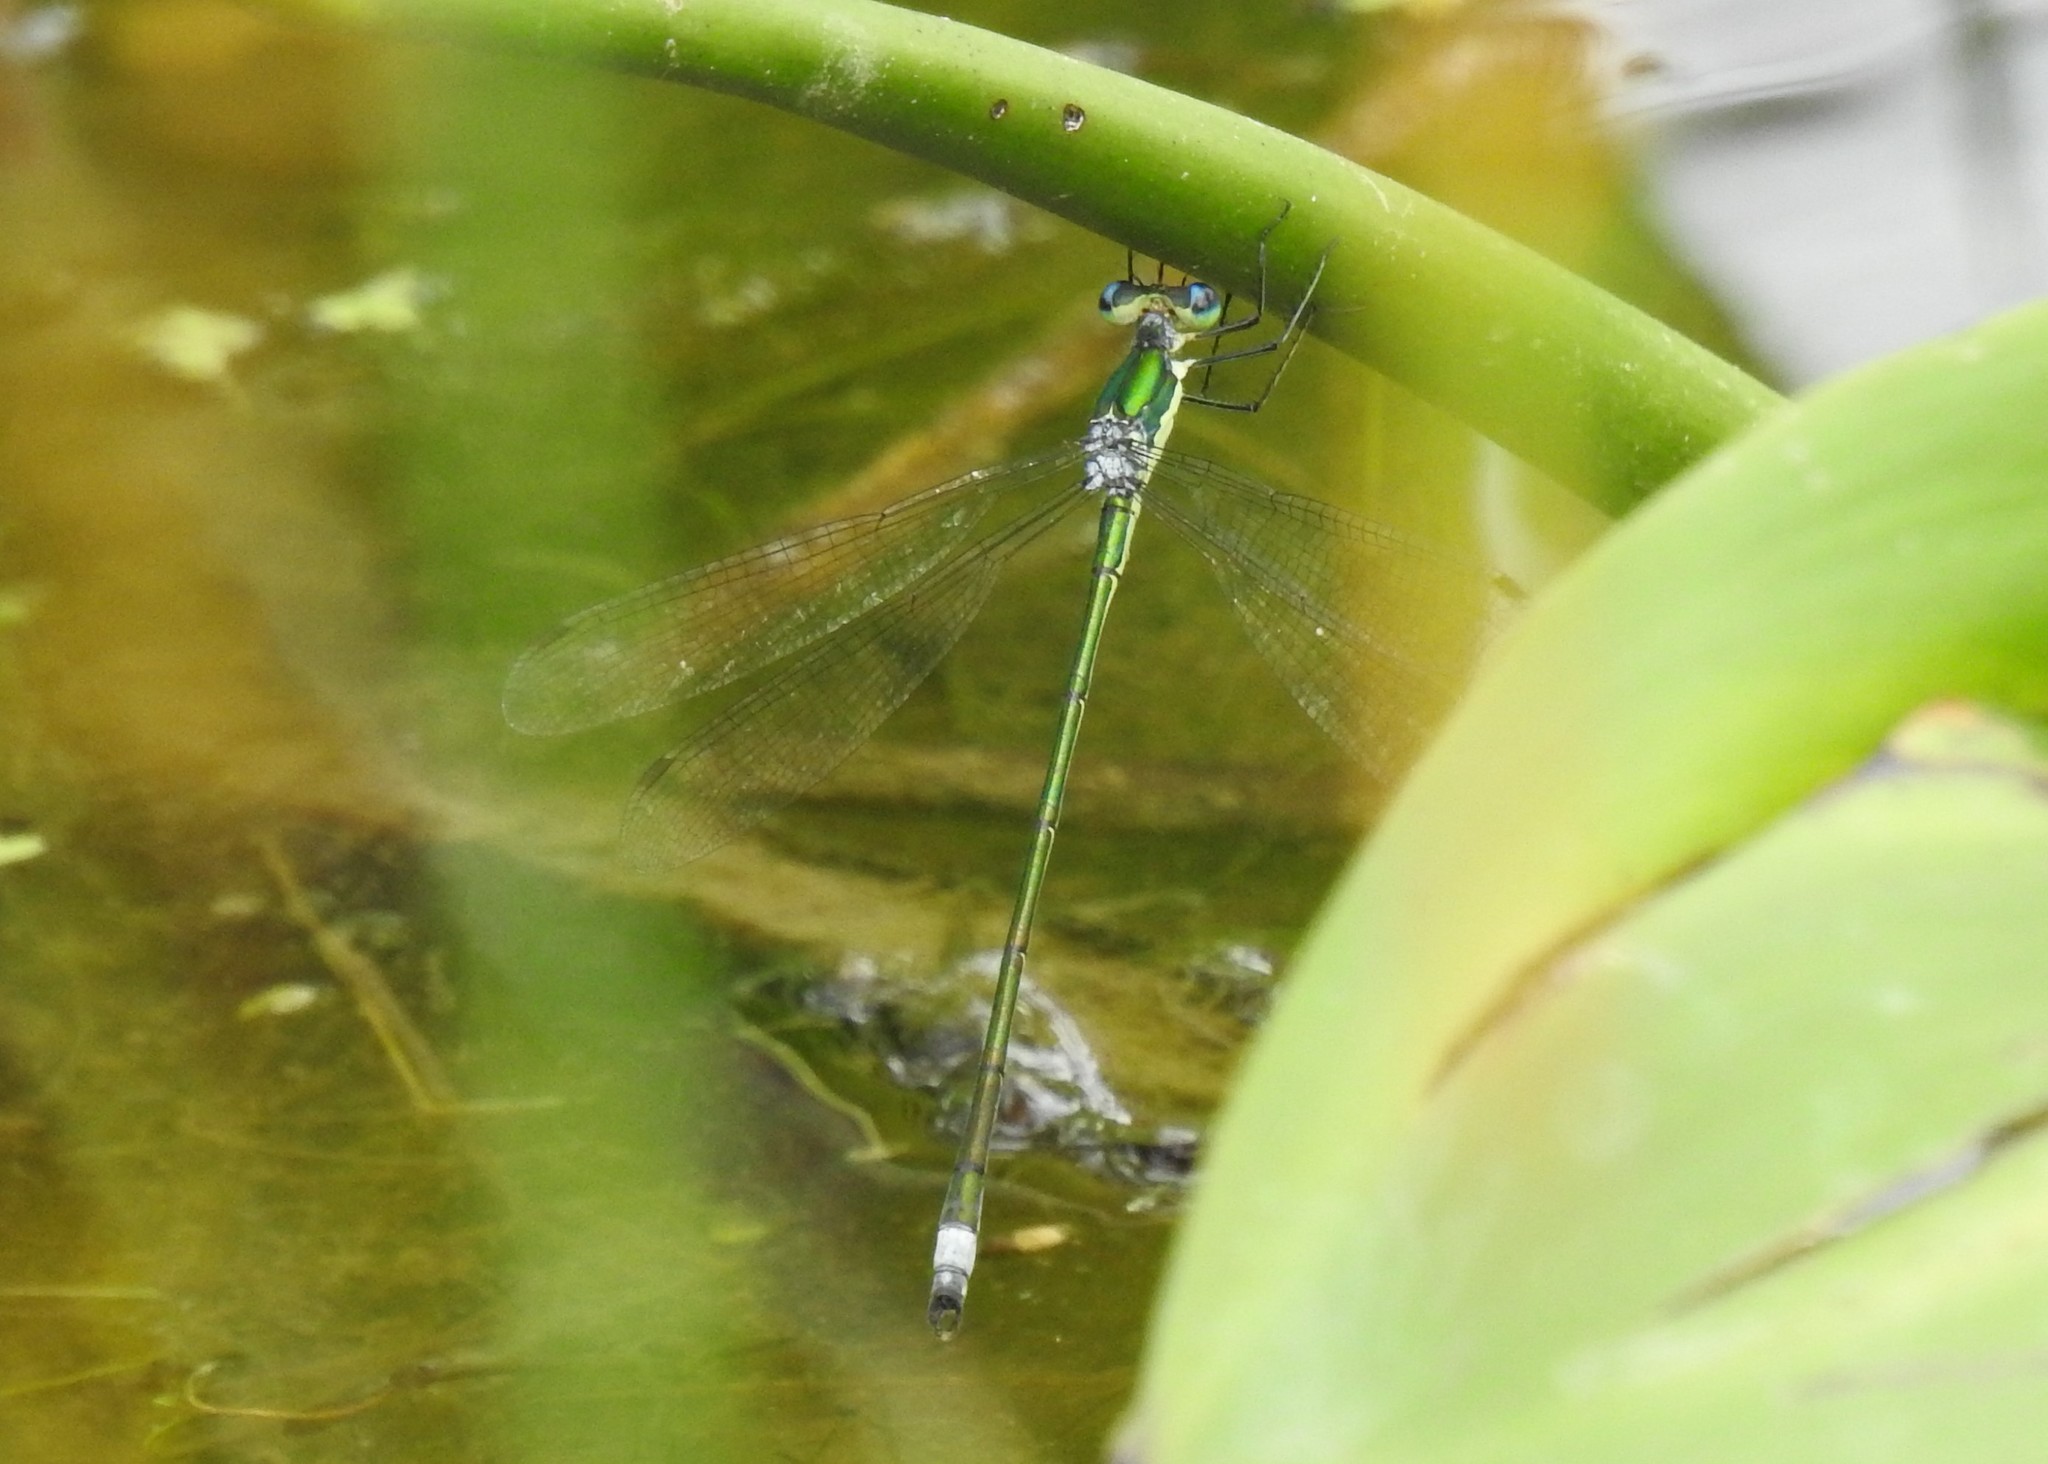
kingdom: Animalia
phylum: Arthropoda
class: Insecta
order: Odonata
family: Lestidae
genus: Lestes
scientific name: Lestes inaequalis
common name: Elegant spreadwing
